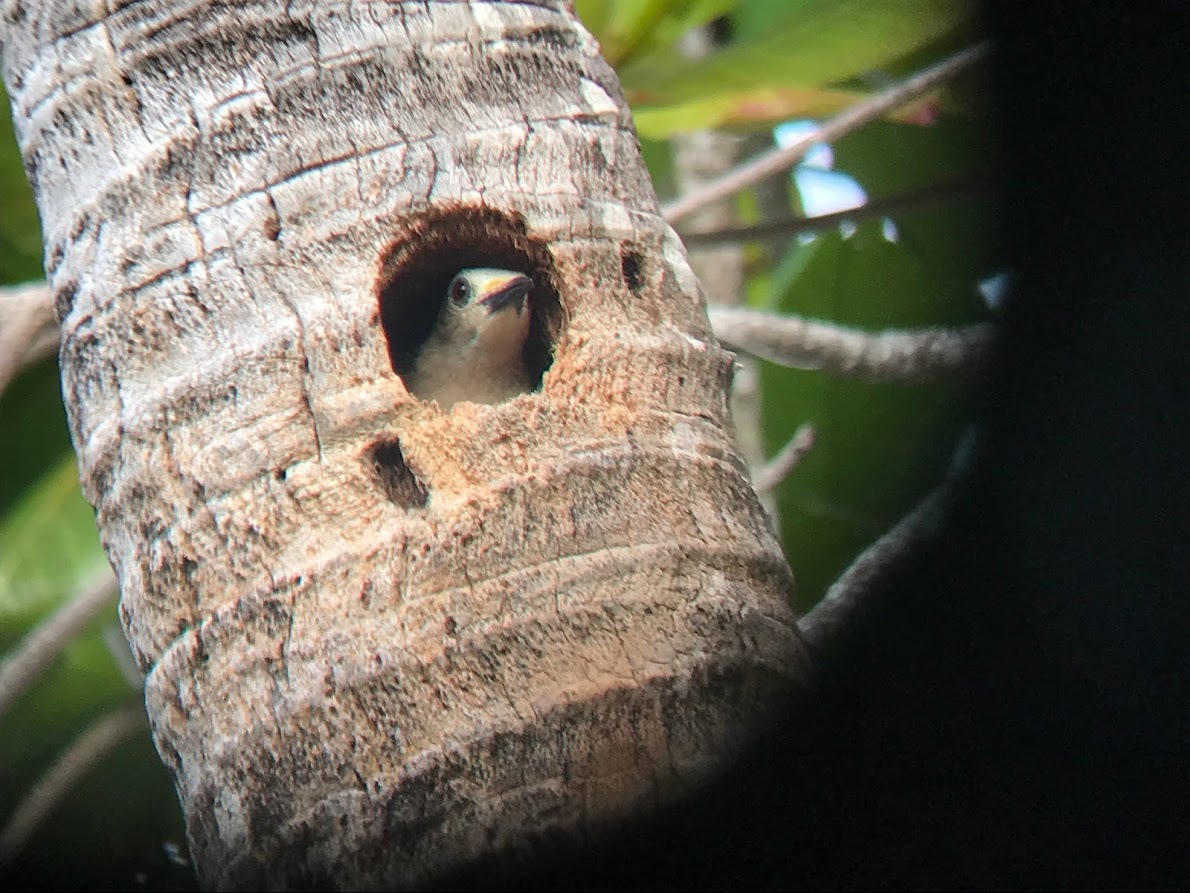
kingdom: Animalia
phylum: Chordata
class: Aves
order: Piciformes
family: Picidae
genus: Melanerpes
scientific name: Melanerpes aurifrons
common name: Golden-fronted woodpecker
